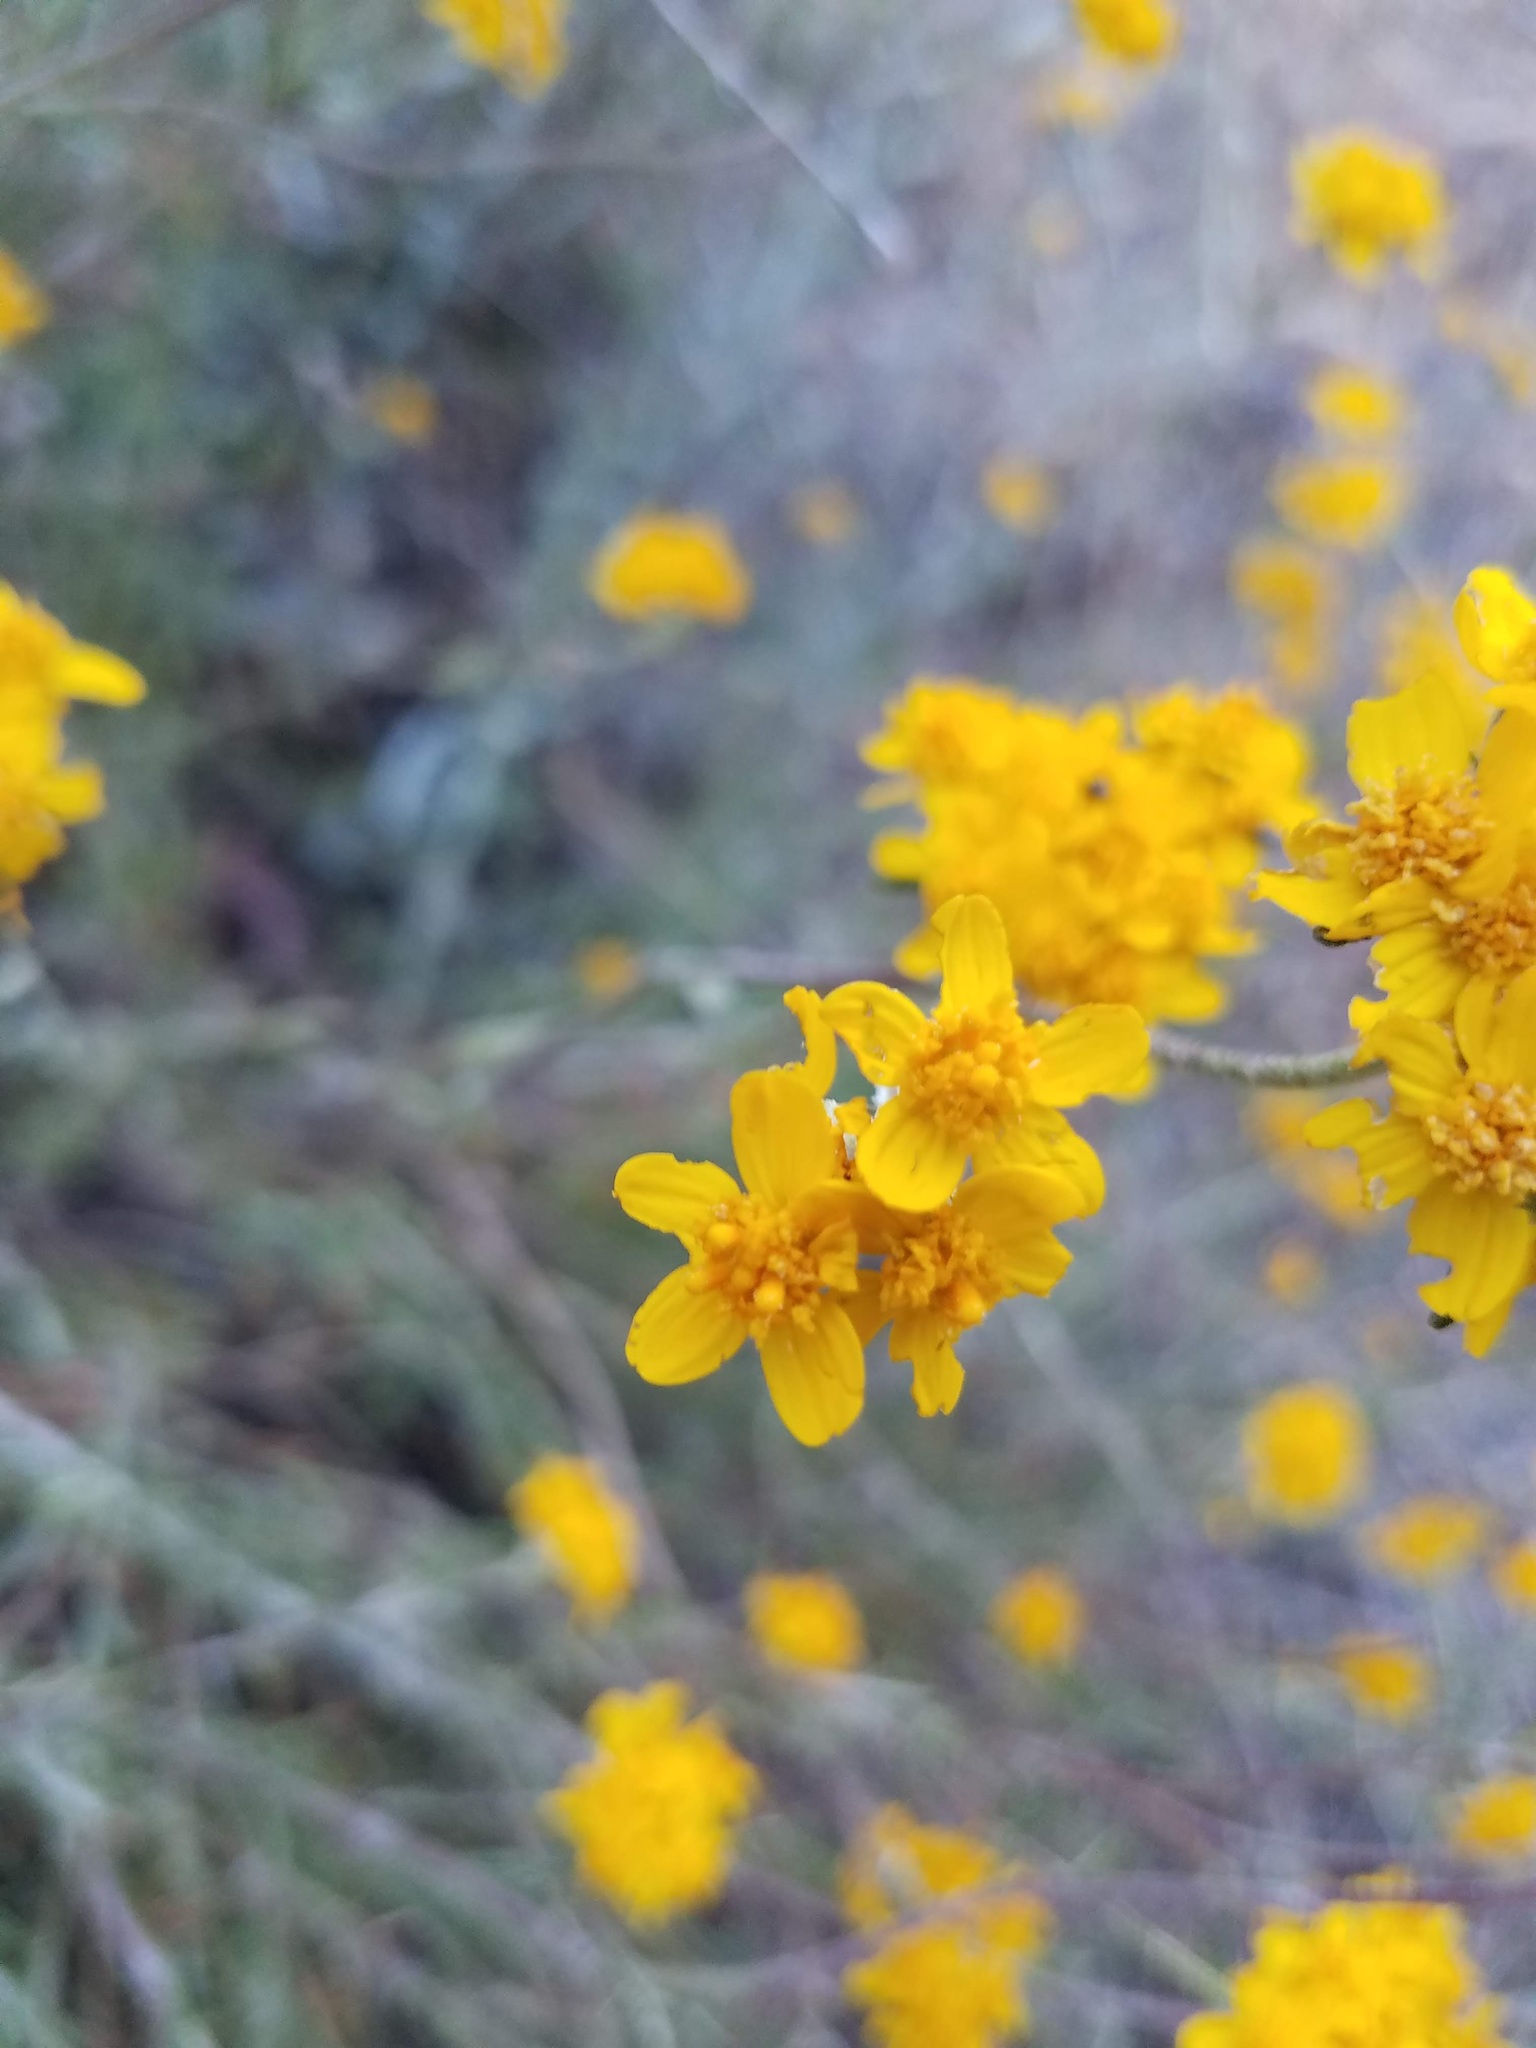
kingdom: Plantae
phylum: Tracheophyta
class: Magnoliopsida
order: Asterales
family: Asteraceae
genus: Eriophyllum
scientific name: Eriophyllum confertiflorum
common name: Golden-yarrow
